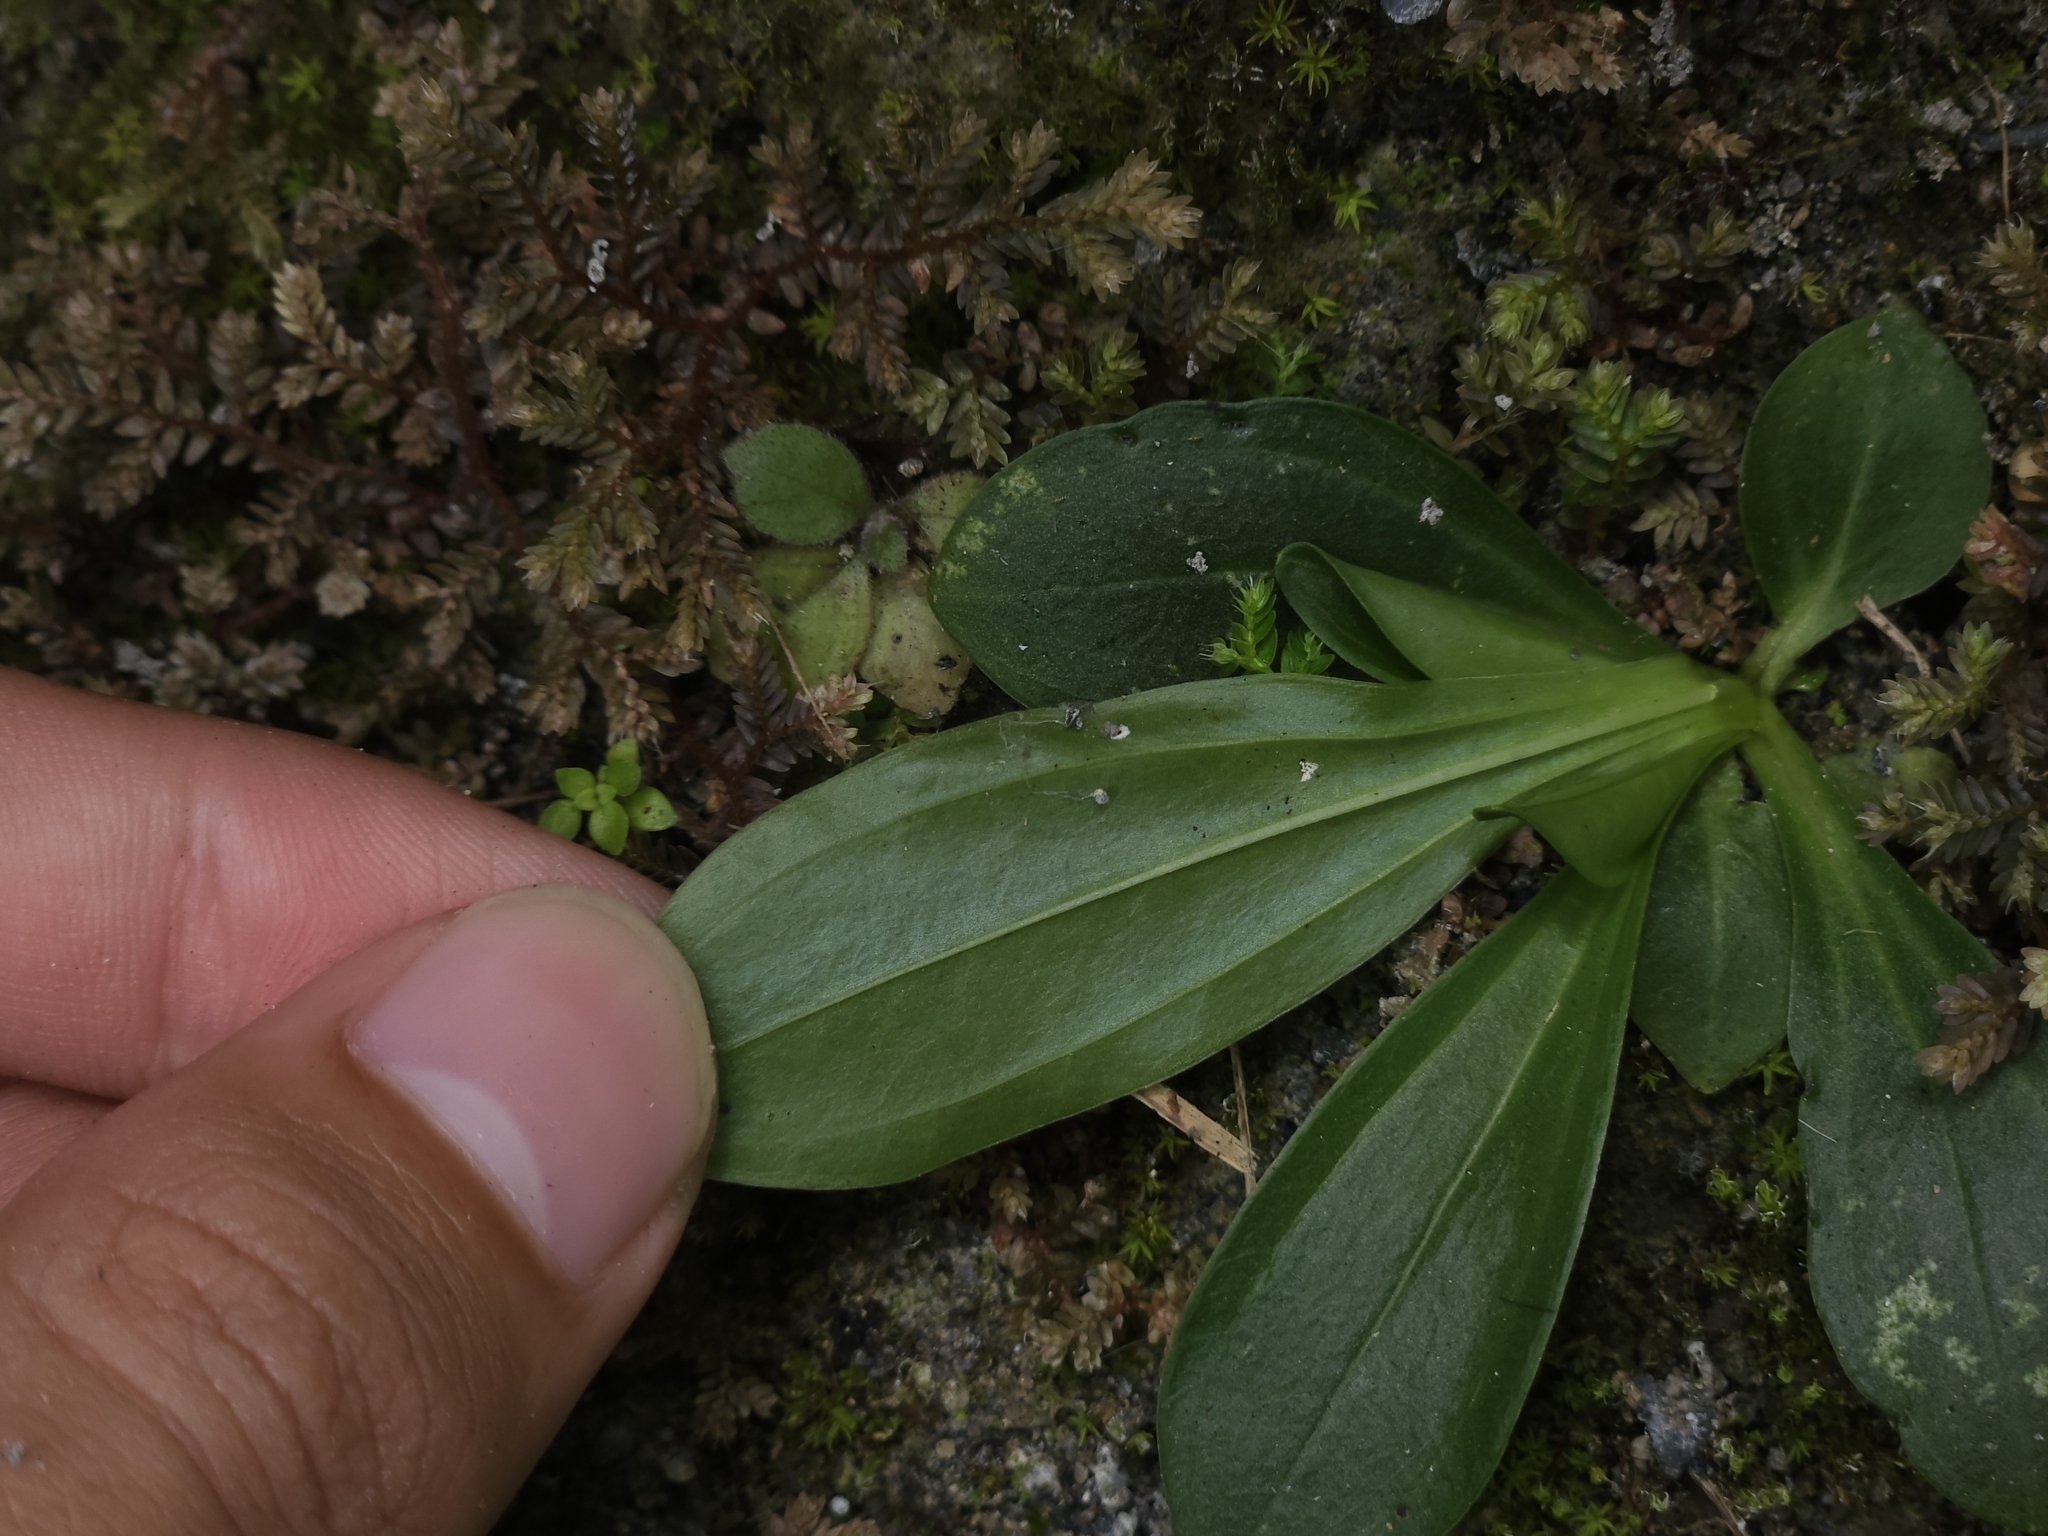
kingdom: Plantae
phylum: Tracheophyta
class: Liliopsida
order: Liliales
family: Melanthiaceae
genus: Helonias
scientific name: Helonias umbellata
